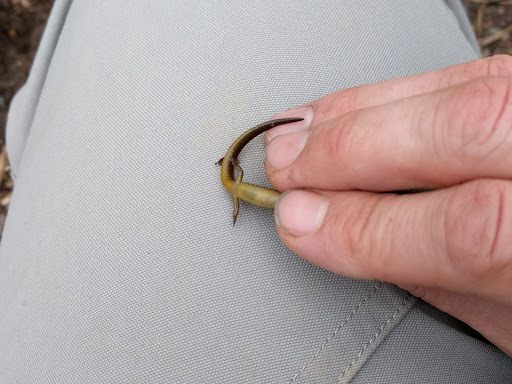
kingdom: Animalia
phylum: Chordata
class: Amphibia
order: Caudata
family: Plethodontidae
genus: Eurycea
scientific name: Eurycea bislineata
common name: Northern two-lined salamander
